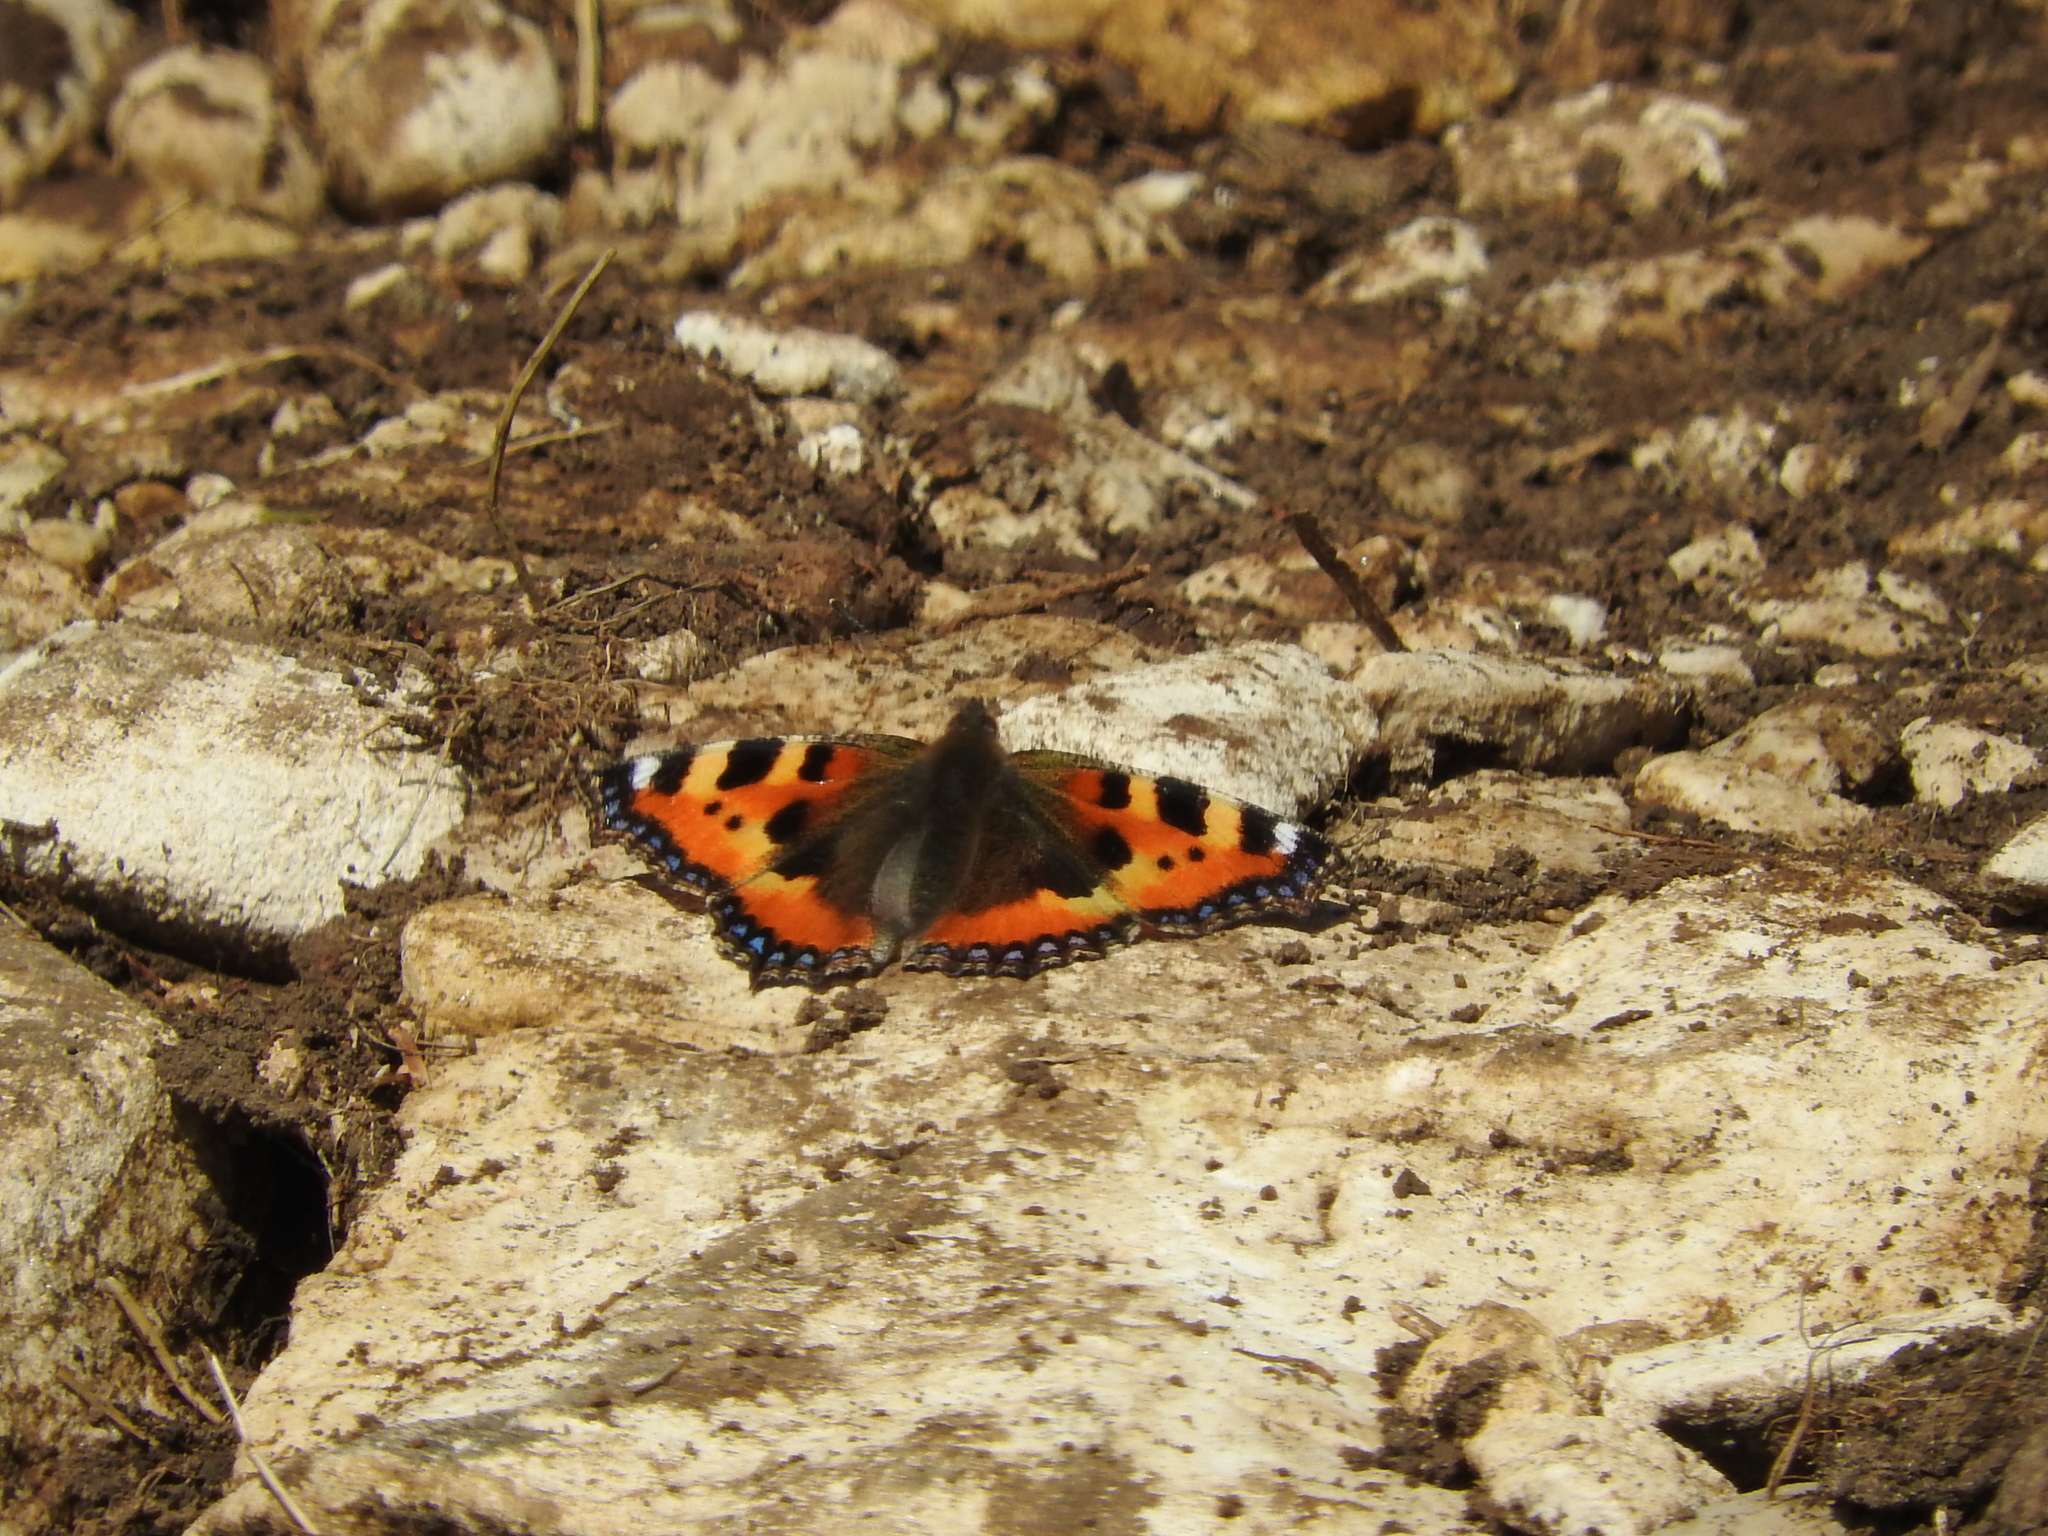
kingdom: Animalia
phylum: Arthropoda
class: Insecta
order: Lepidoptera
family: Nymphalidae
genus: Aglais
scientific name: Aglais urticae
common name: Small tortoiseshell
